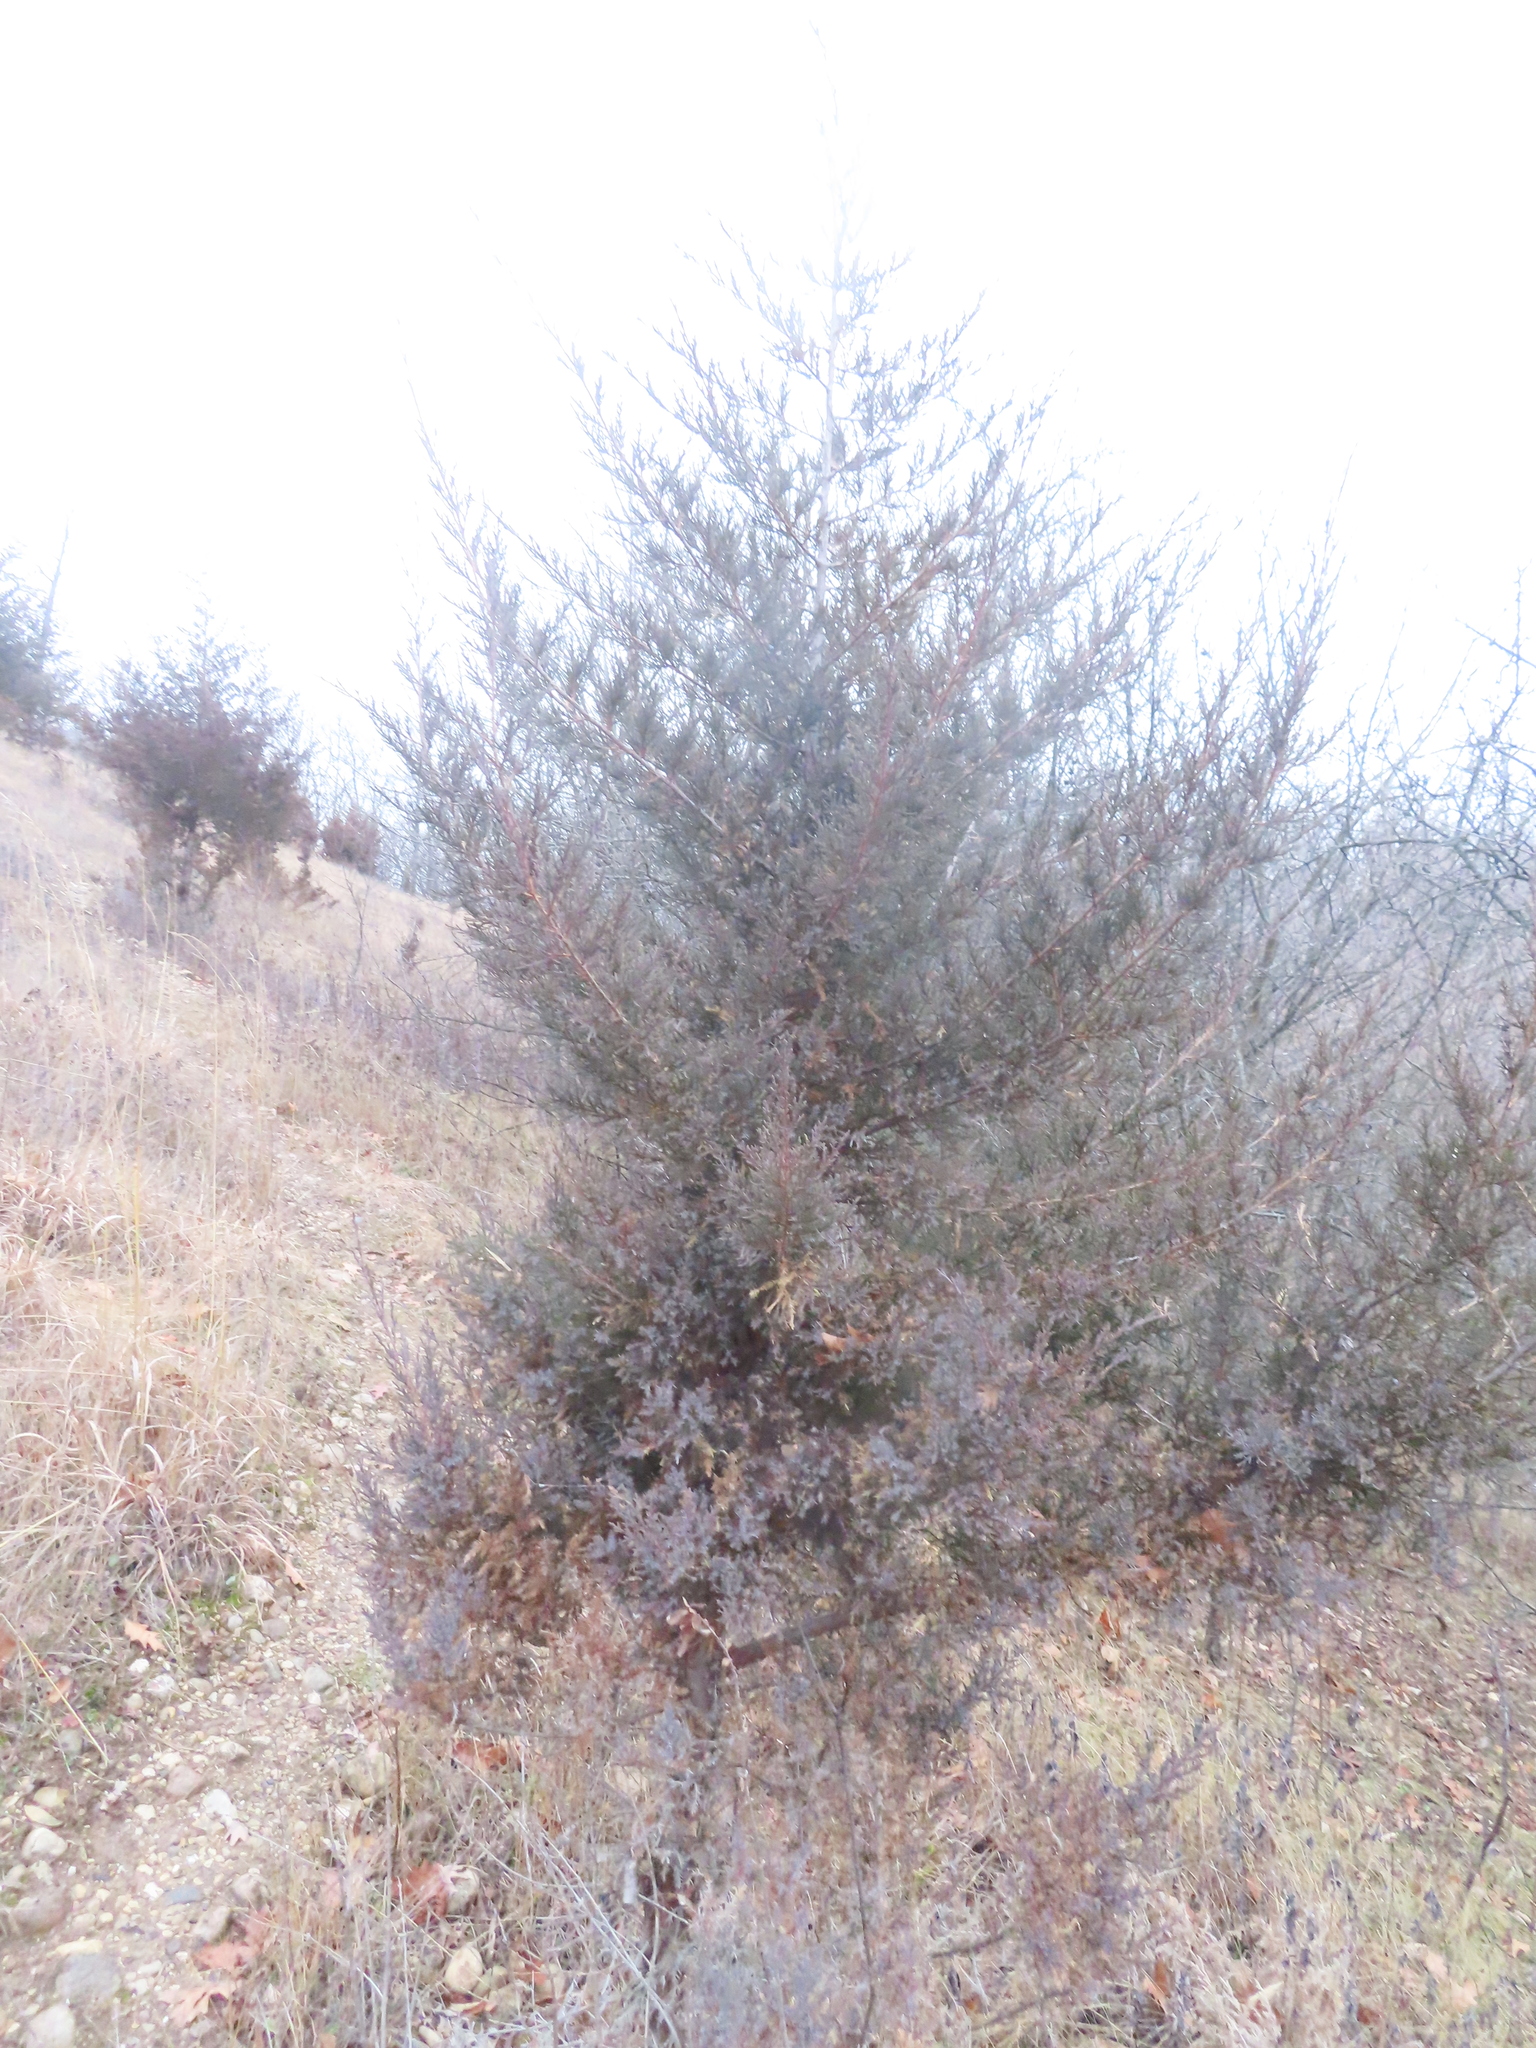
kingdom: Plantae
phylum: Tracheophyta
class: Pinopsida
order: Pinales
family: Cupressaceae
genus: Juniperus
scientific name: Juniperus virginiana
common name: Red juniper
